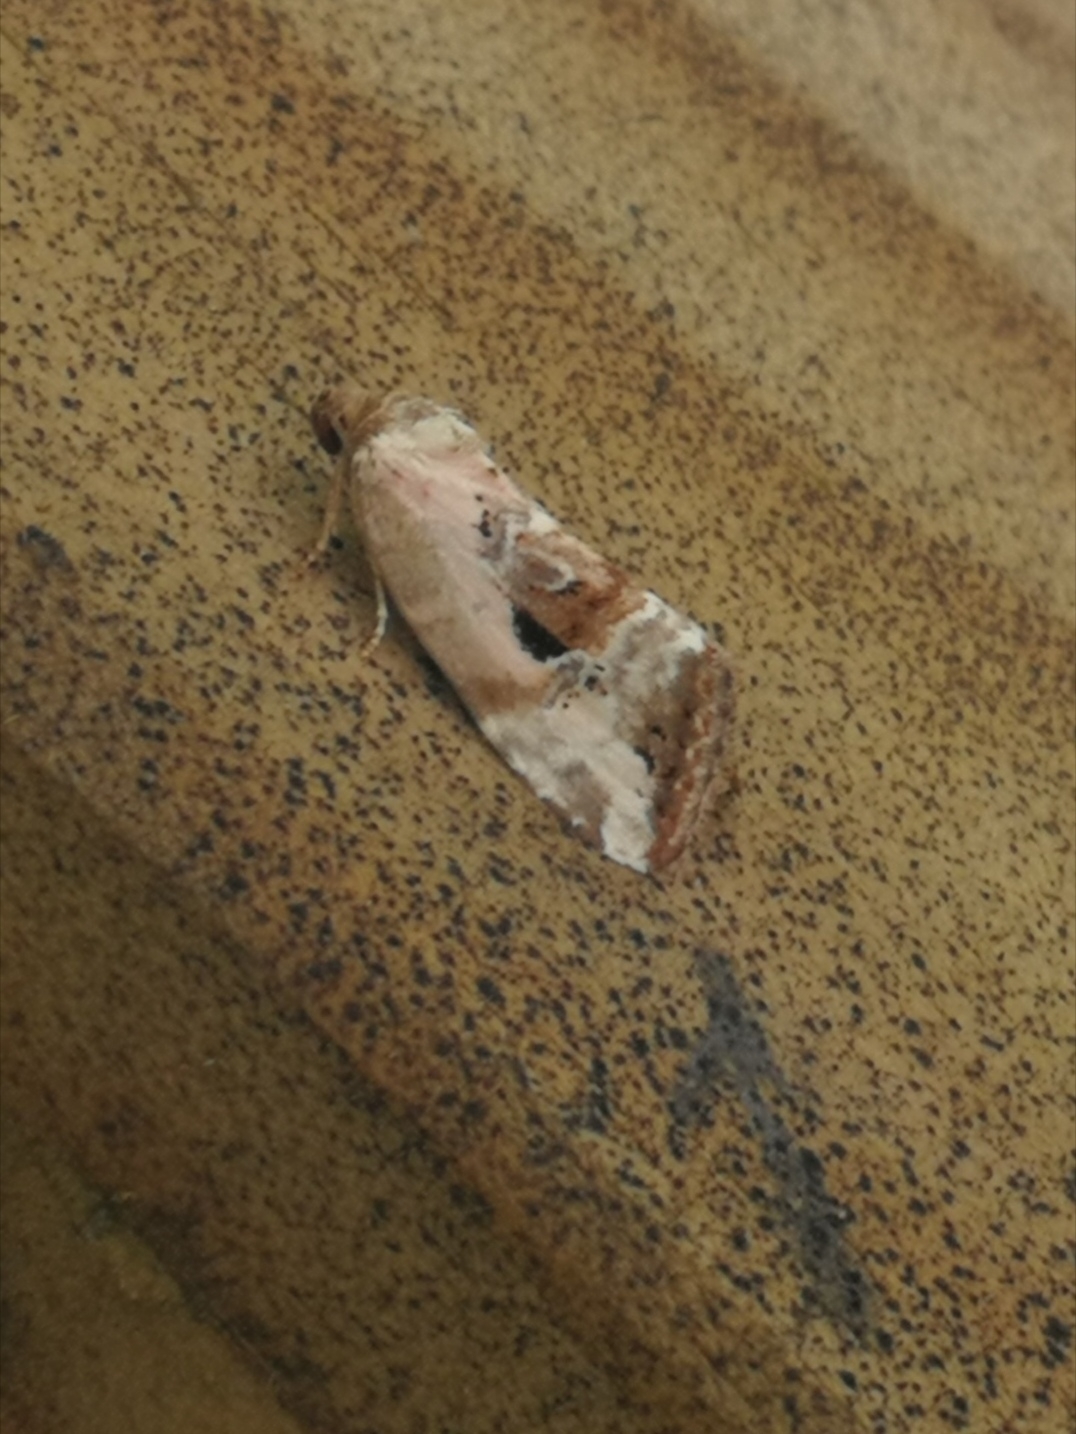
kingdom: Animalia
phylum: Arthropoda
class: Insecta
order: Lepidoptera
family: Noctuidae
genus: Elaphria
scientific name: Elaphria venustula
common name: Rosy marbled
